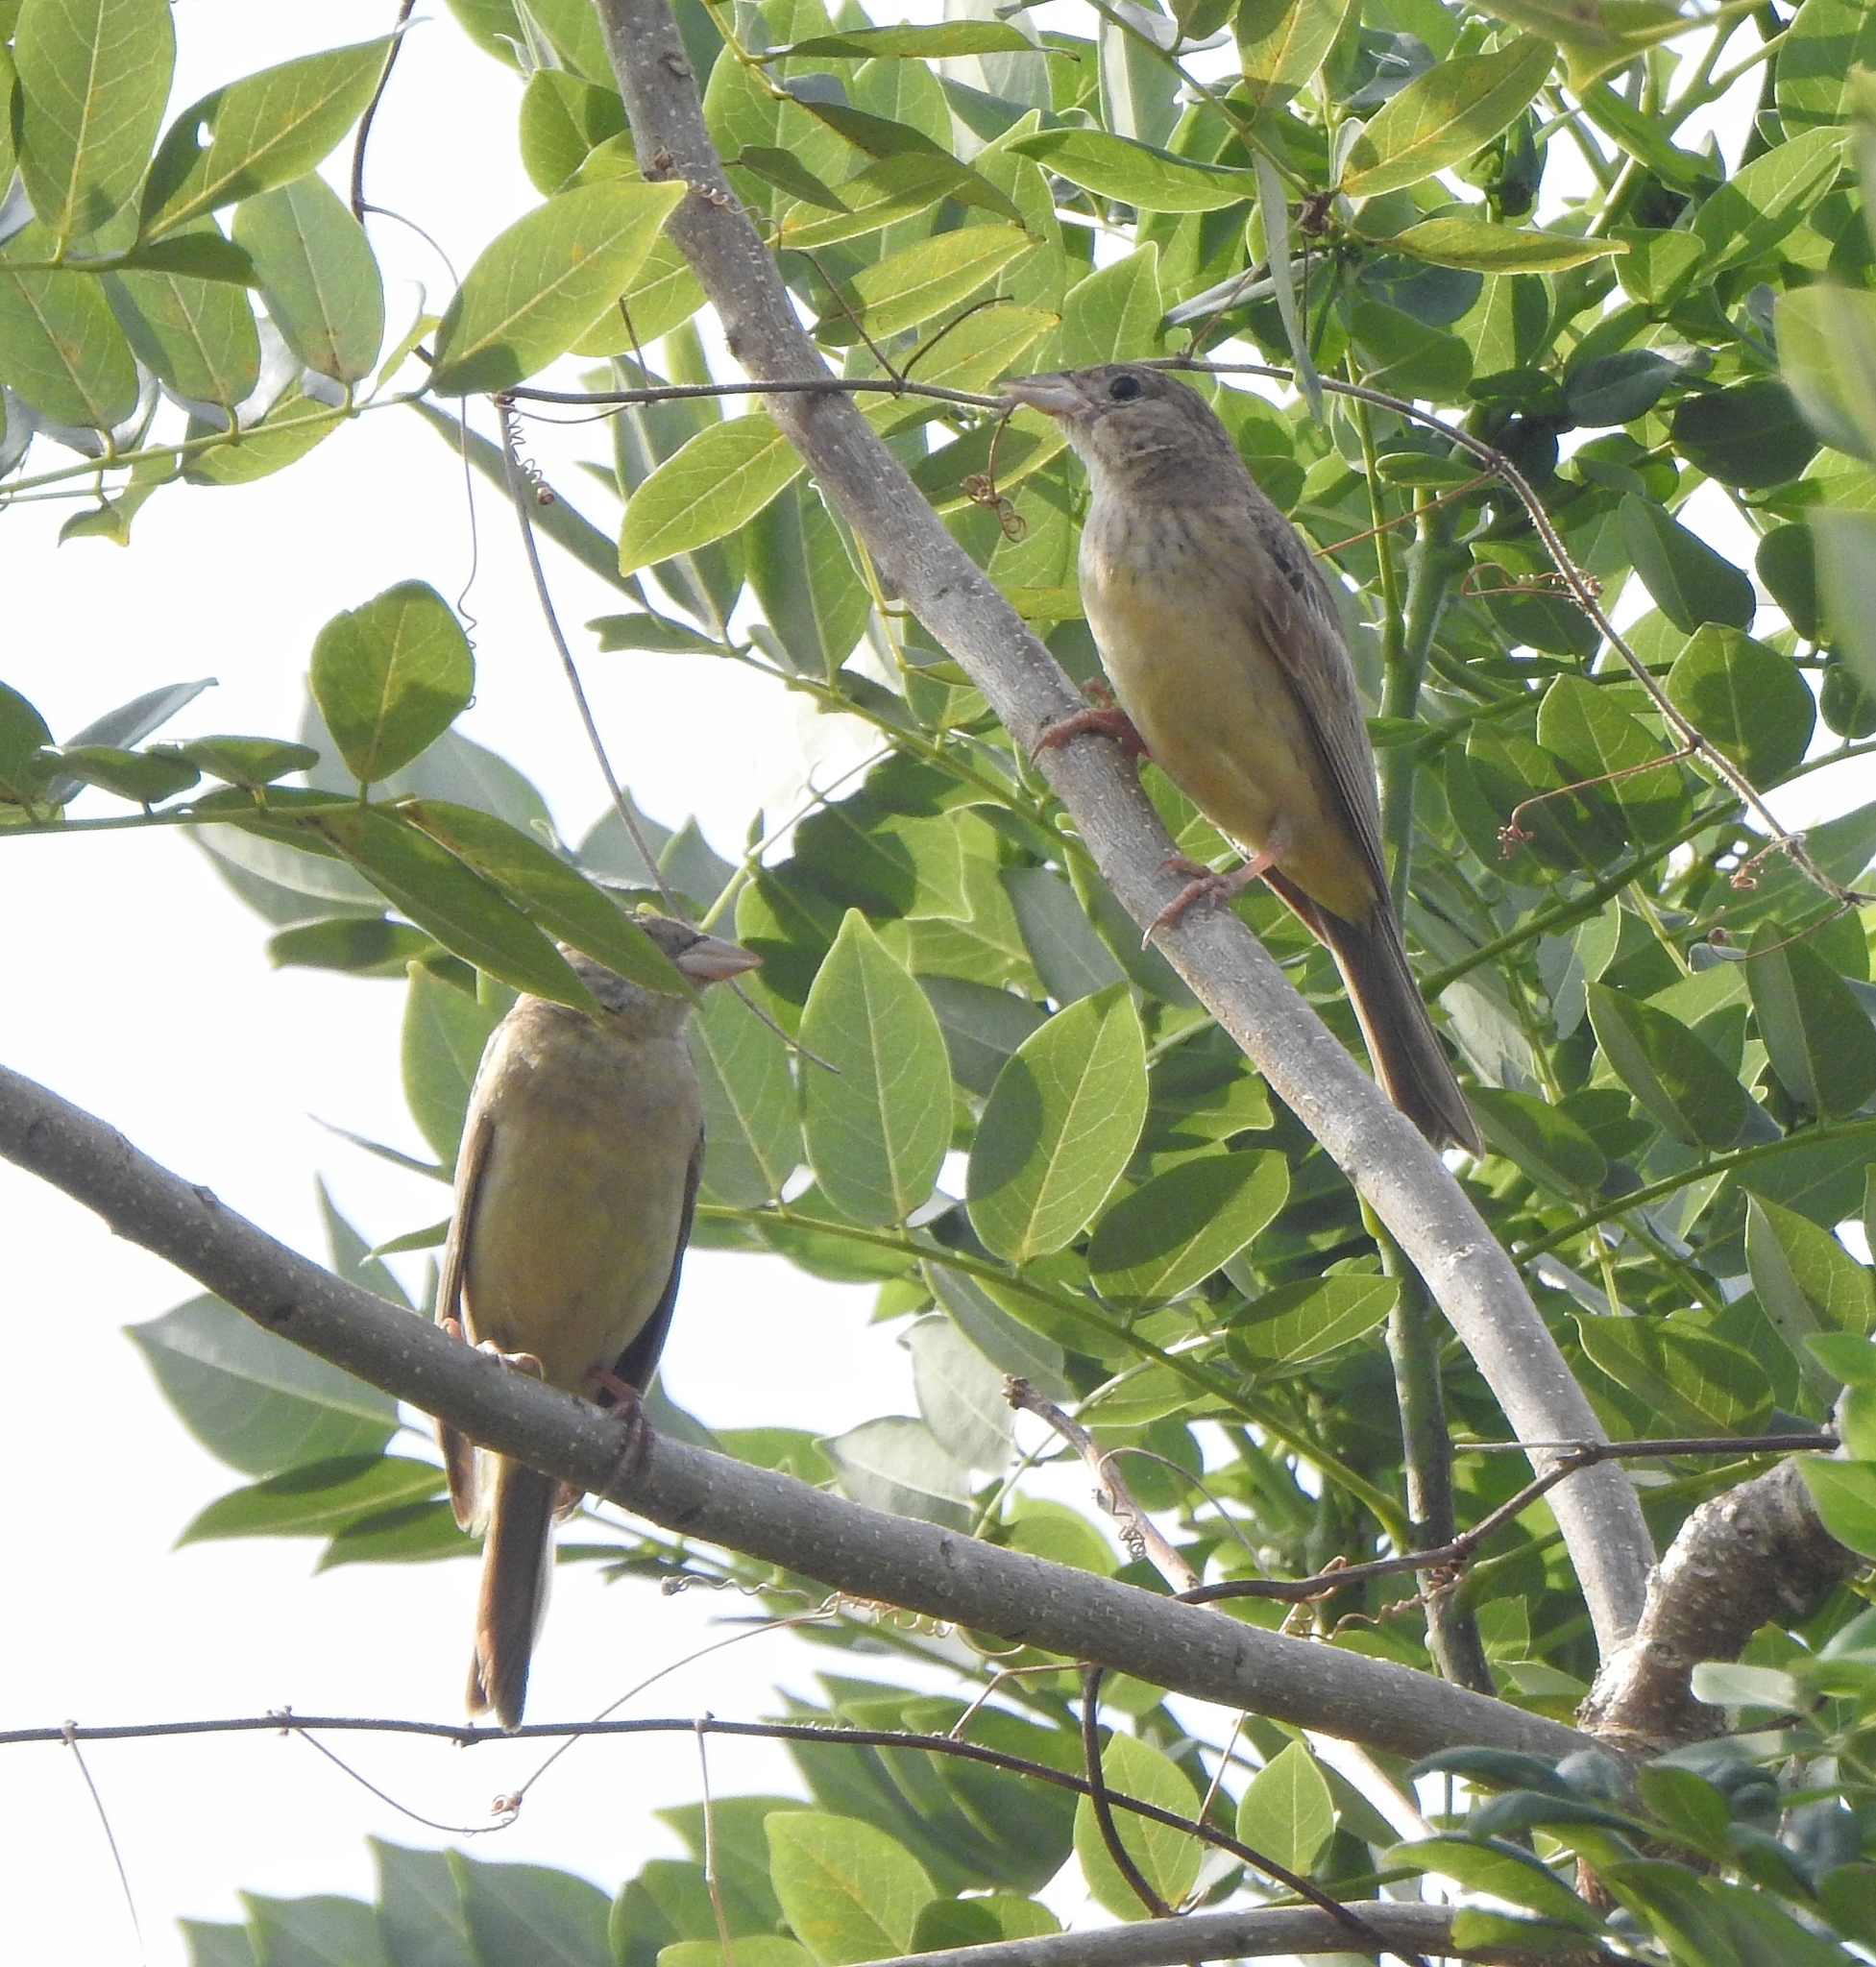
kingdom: Animalia
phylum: Chordata
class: Aves
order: Passeriformes
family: Emberizidae
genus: Emberiza
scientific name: Emberiza melanocephala
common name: Black-headed bunting
